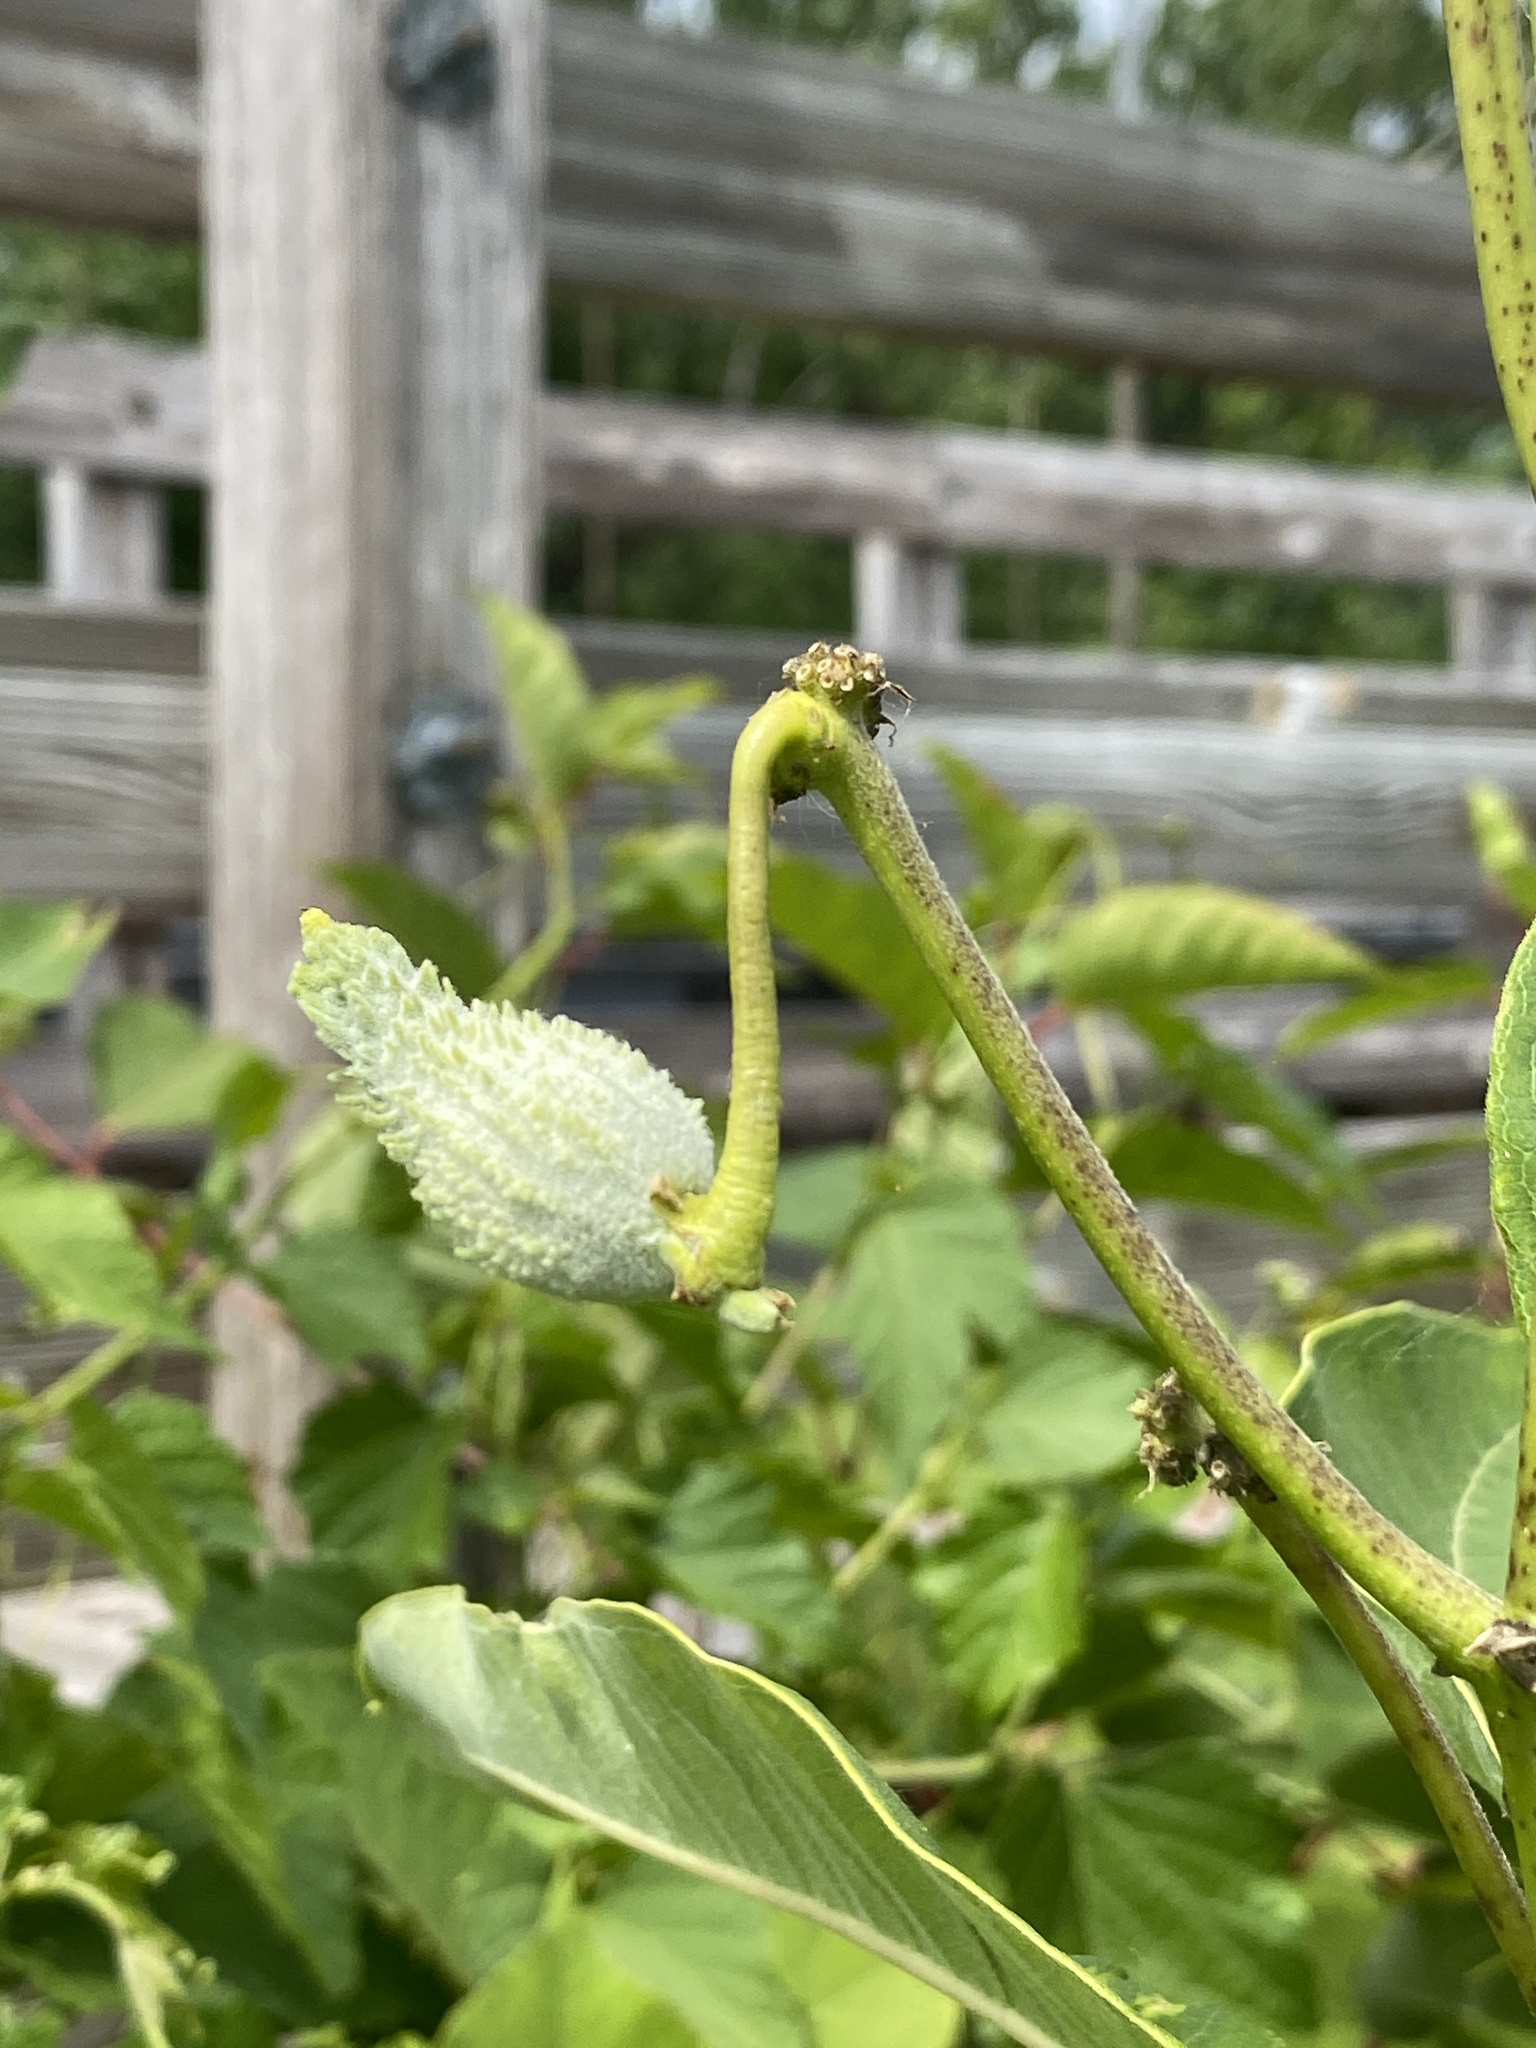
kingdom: Plantae
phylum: Tracheophyta
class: Magnoliopsida
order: Gentianales
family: Apocynaceae
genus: Asclepias
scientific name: Asclepias syriaca
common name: Common milkweed
